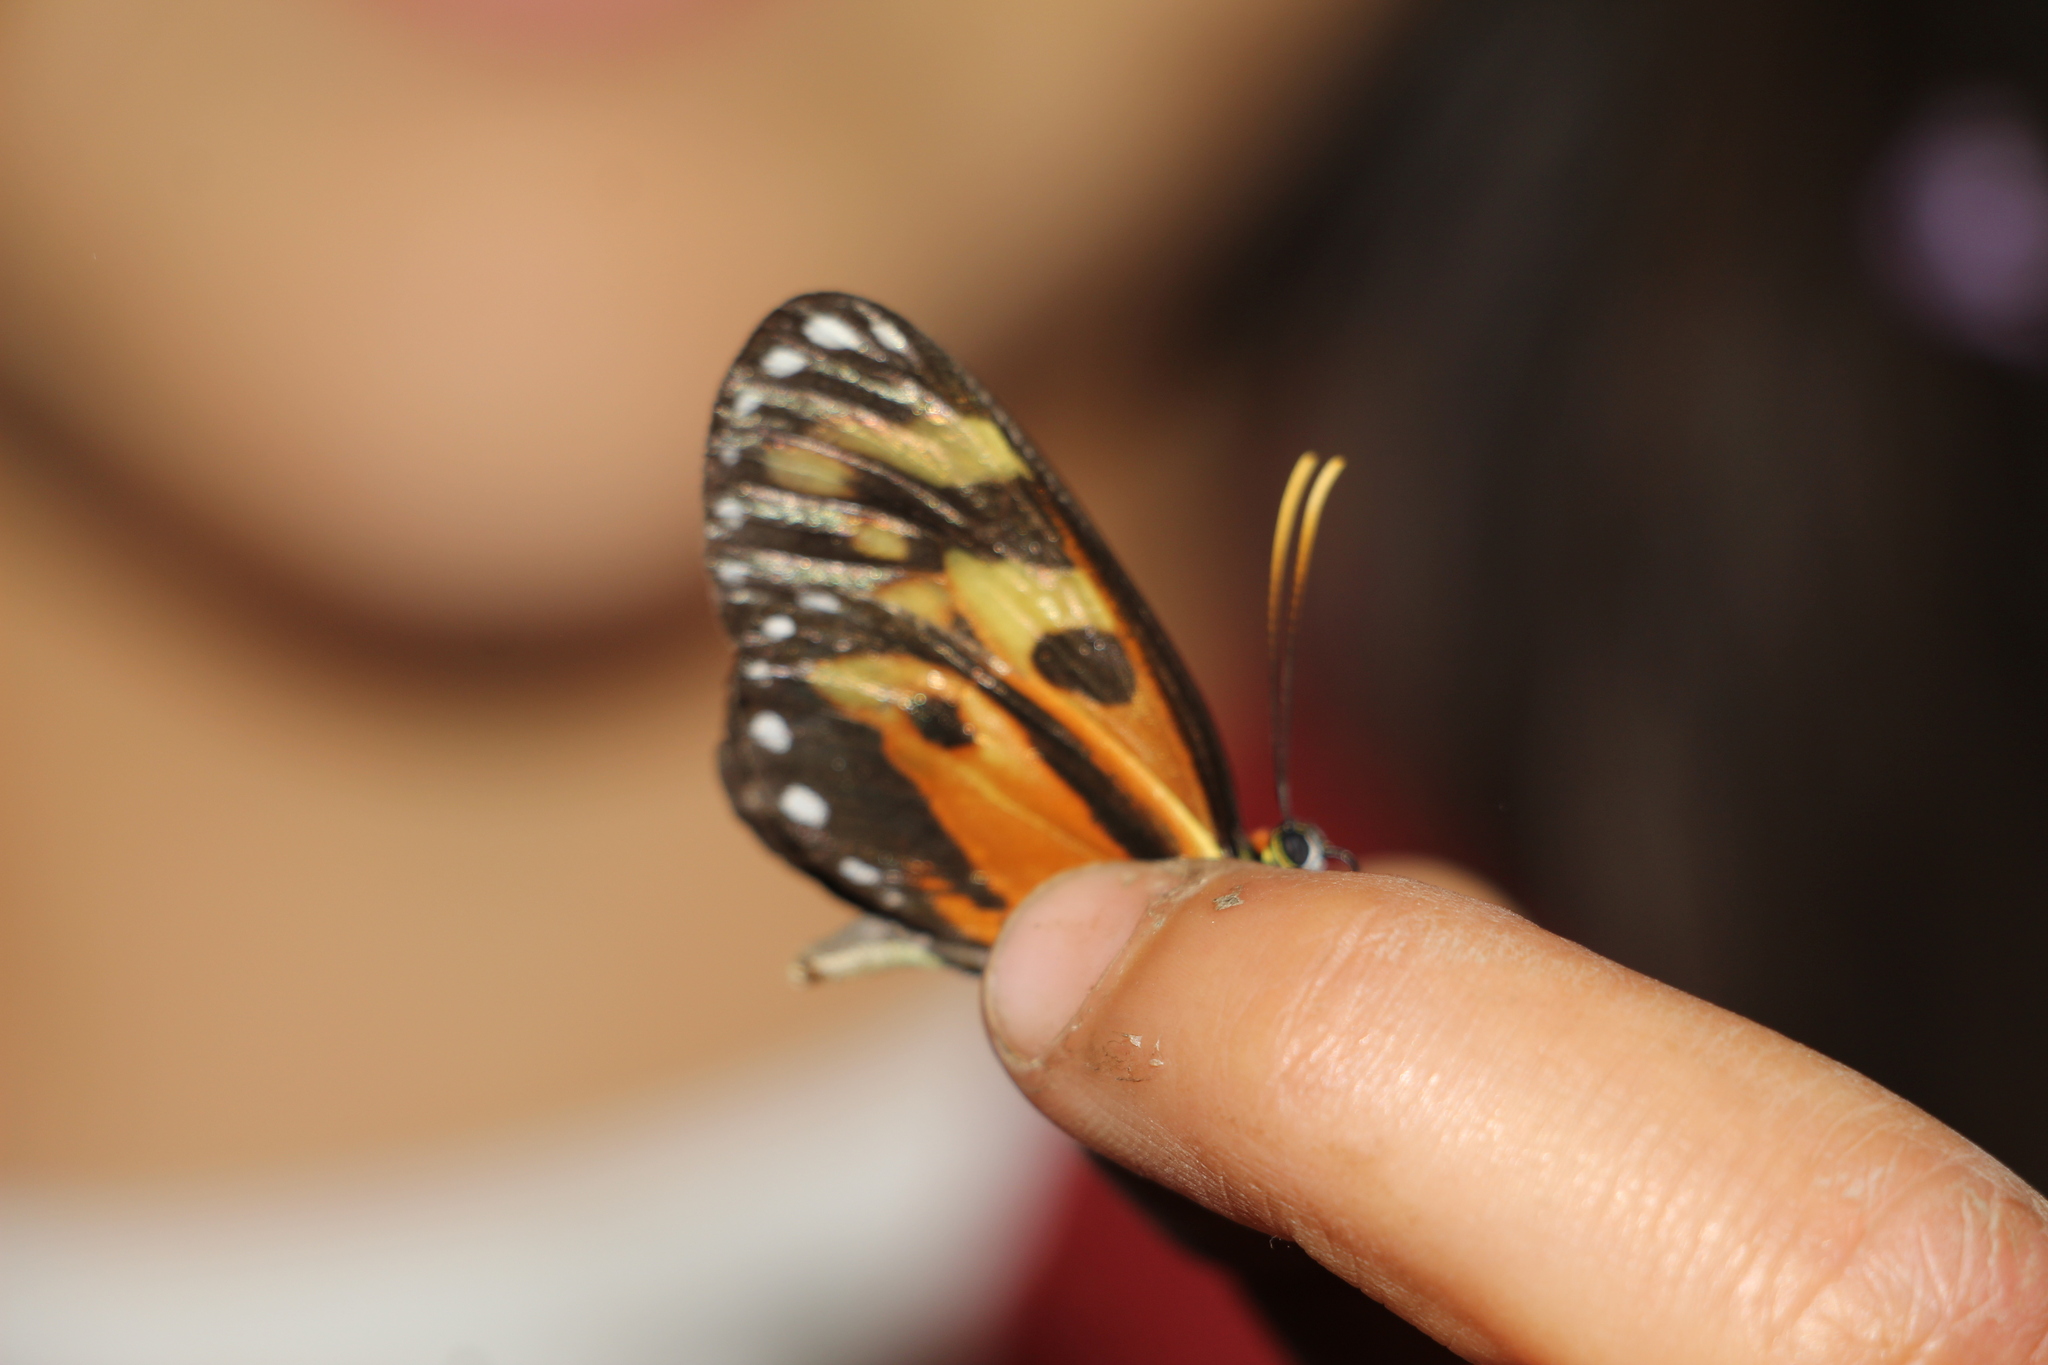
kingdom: Animalia
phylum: Arthropoda
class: Insecta
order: Lepidoptera
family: Nymphalidae
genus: Ithomia
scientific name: Ithomia iphianassa
